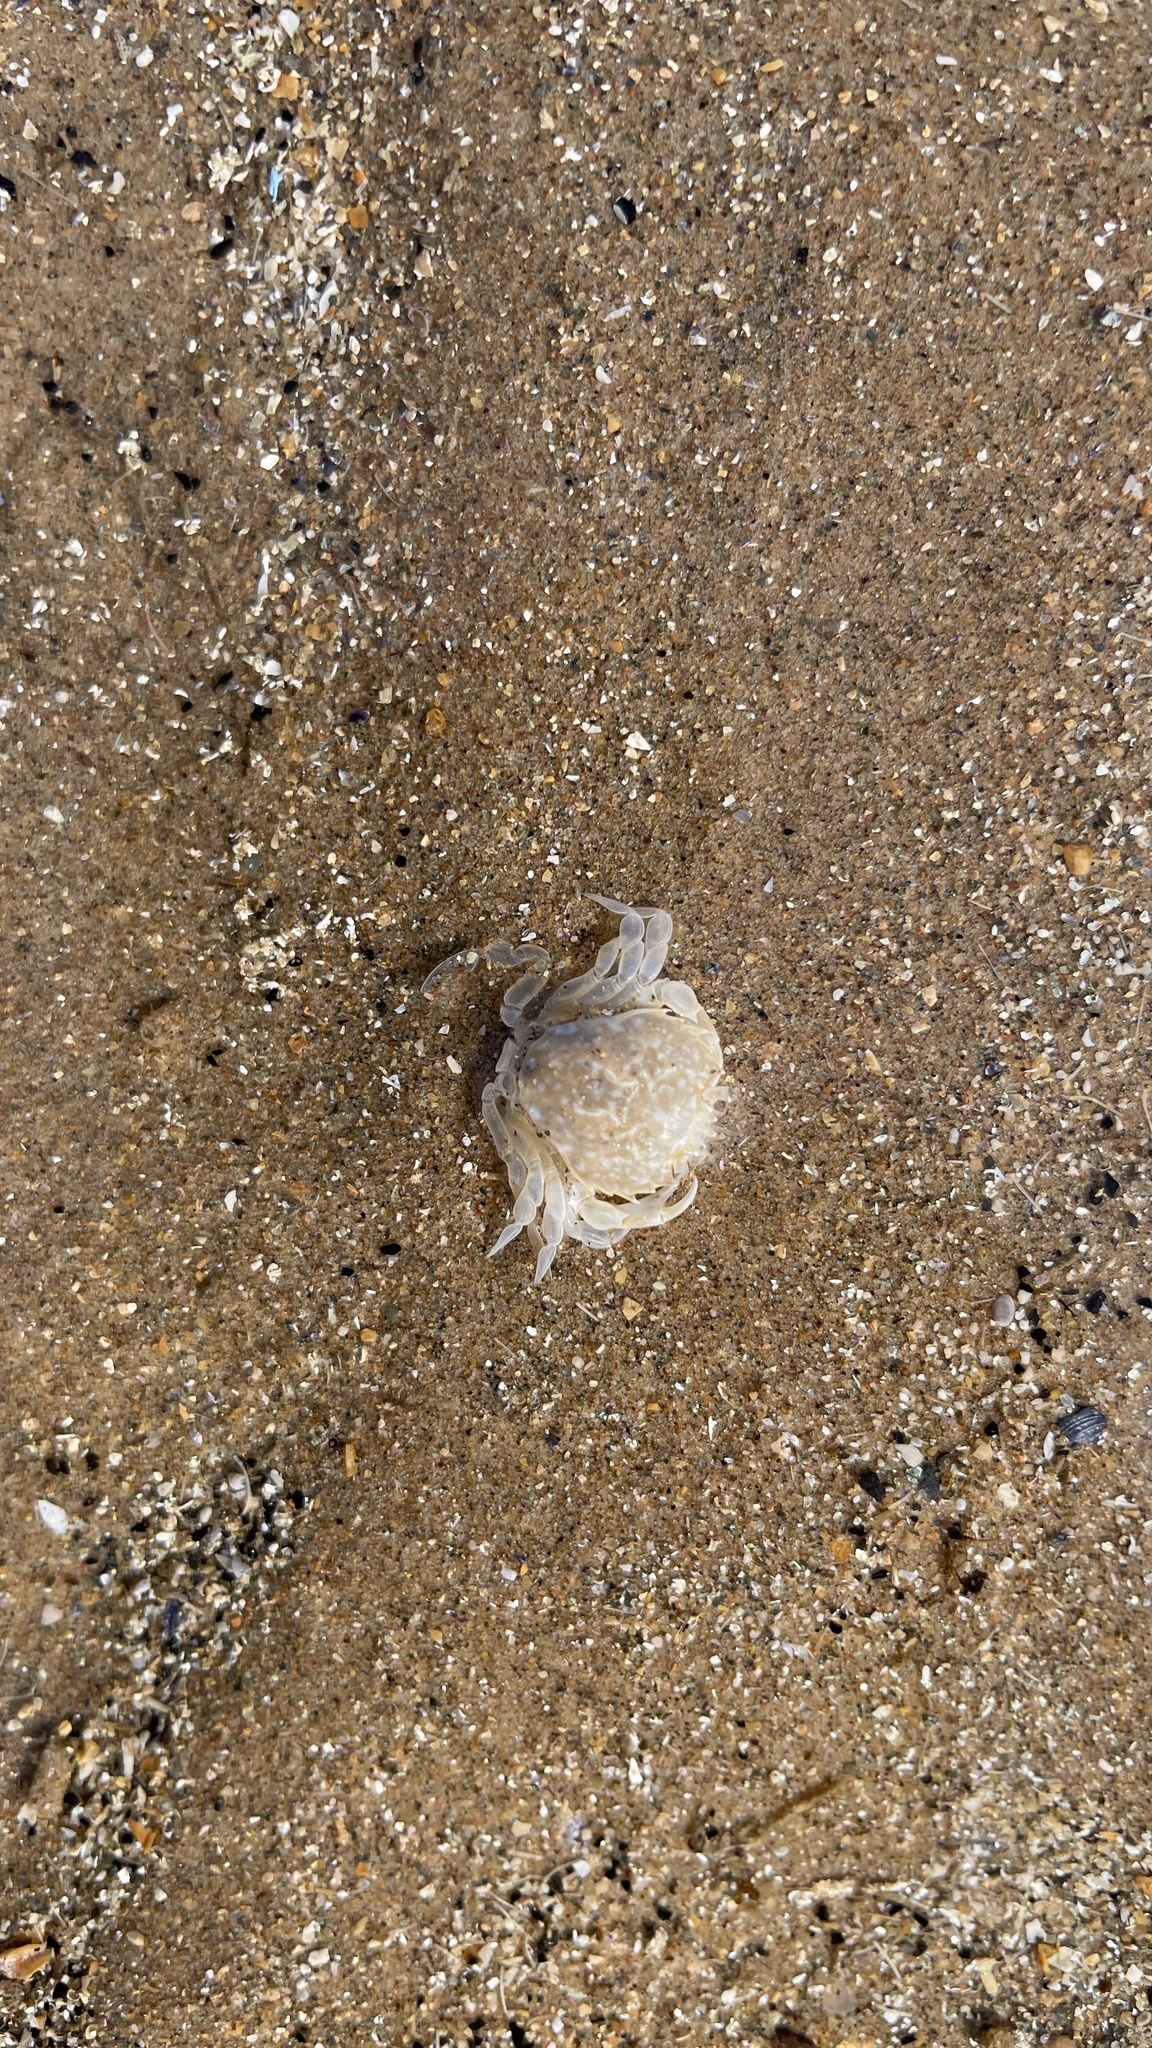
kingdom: Animalia
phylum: Arthropoda
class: Malacostraca
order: Decapoda
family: Carcinidae
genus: Portumnus
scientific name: Portumnus latipes
